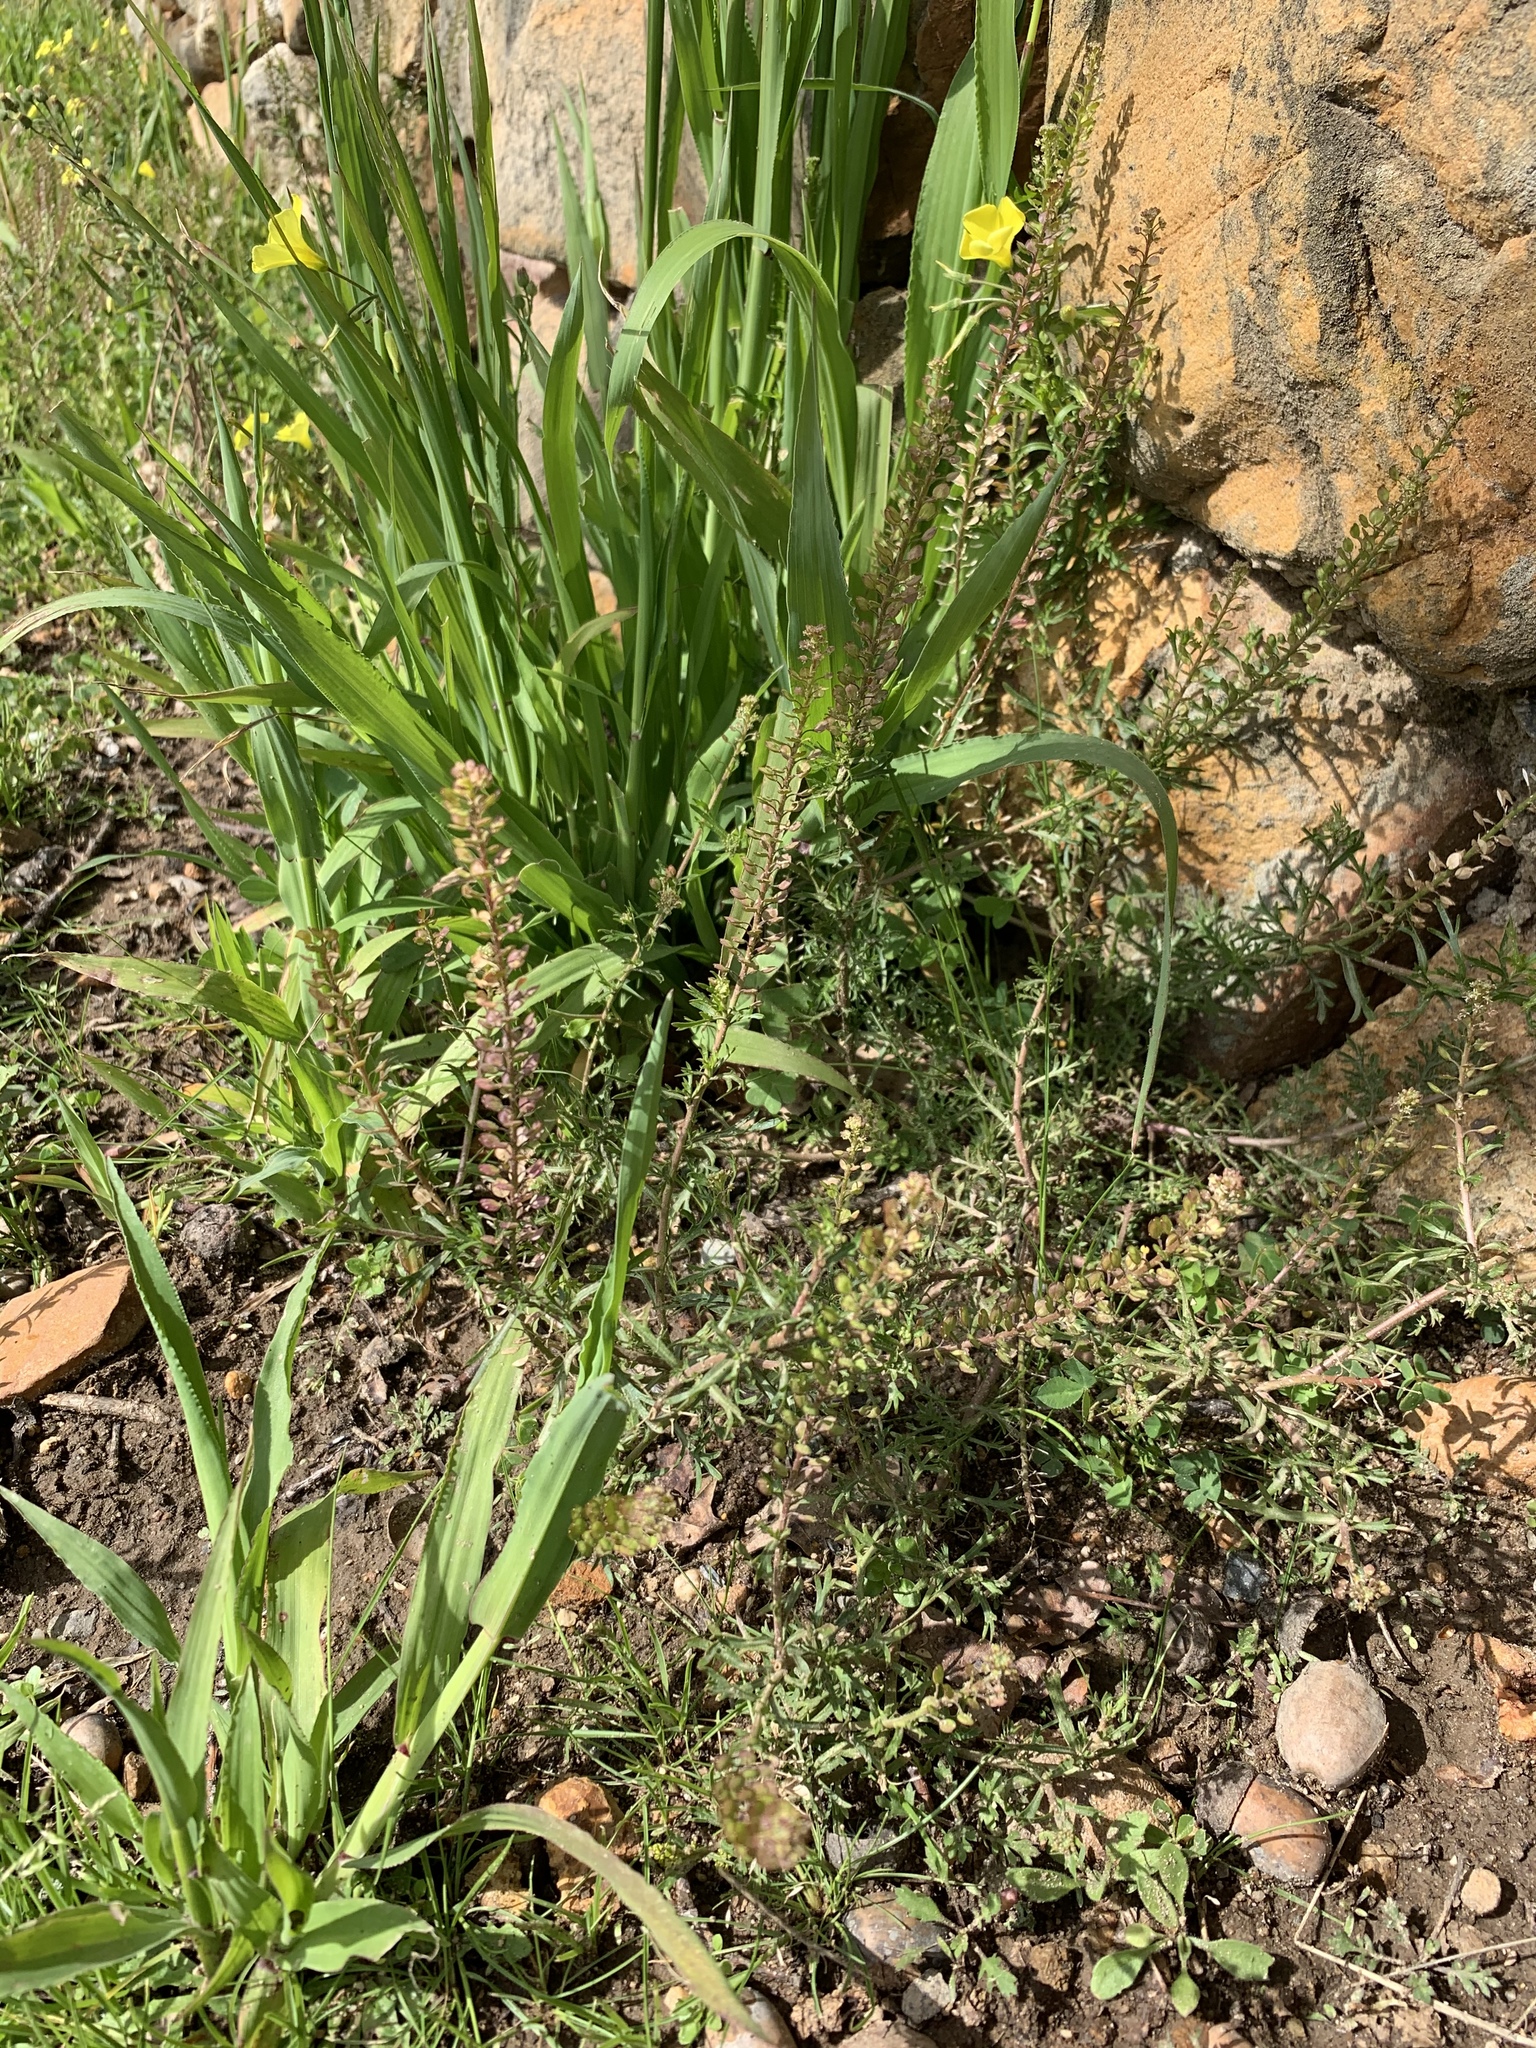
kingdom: Plantae
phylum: Tracheophyta
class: Magnoliopsida
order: Brassicales
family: Brassicaceae
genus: Lepidium
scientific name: Lepidium bonariense
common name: Argentine pepperwort
